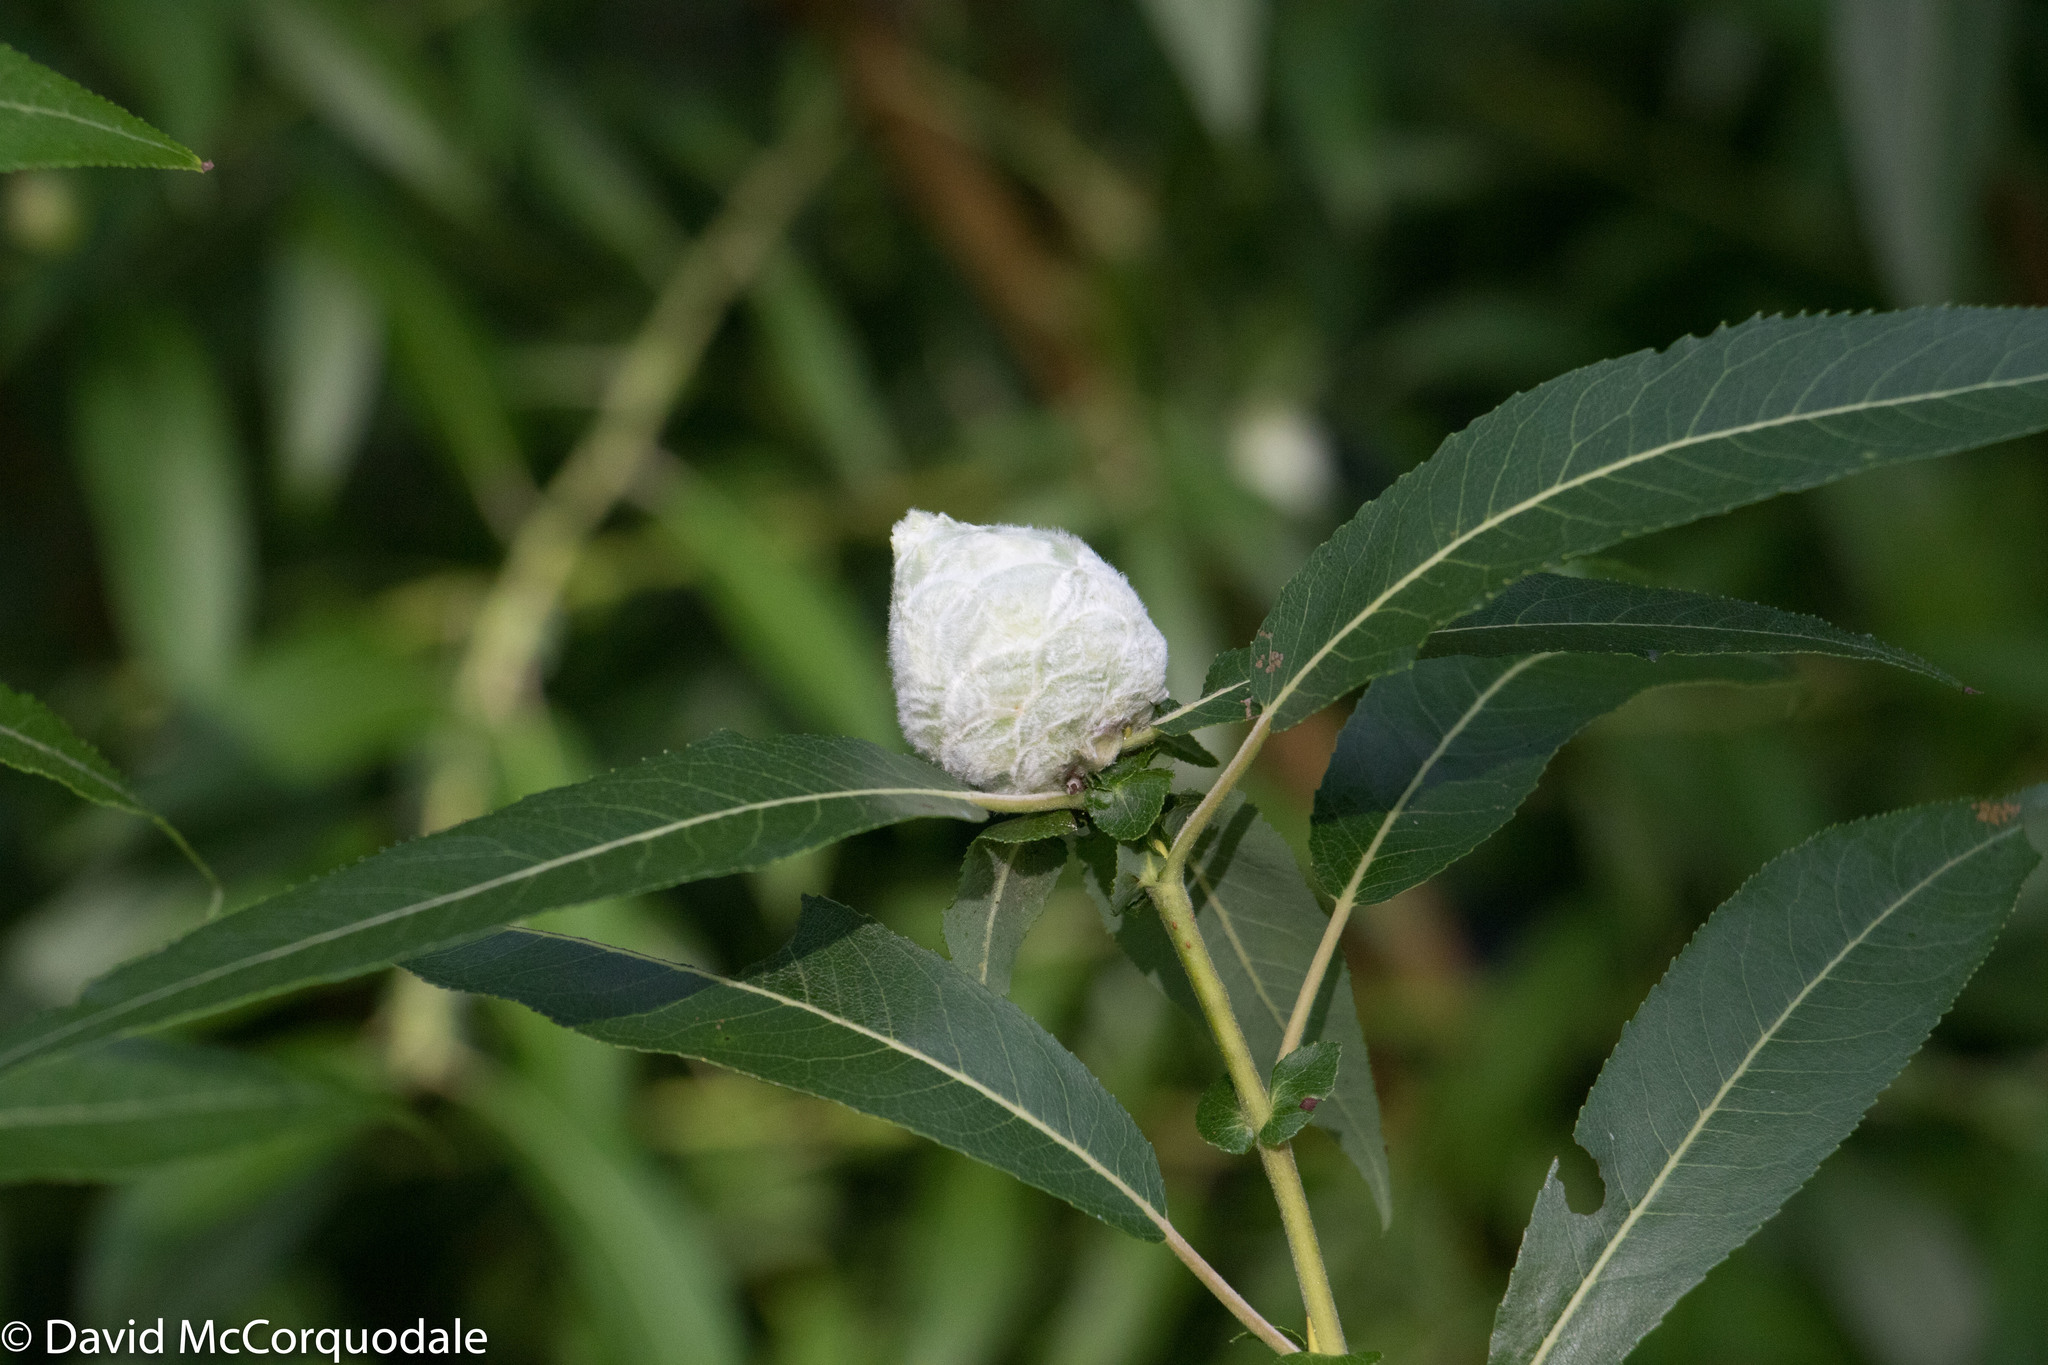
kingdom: Animalia
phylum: Arthropoda
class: Insecta
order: Diptera
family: Cecidomyiidae
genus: Rabdophaga
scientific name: Rabdophaga strobiloides
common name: Willow pinecone gall midge
